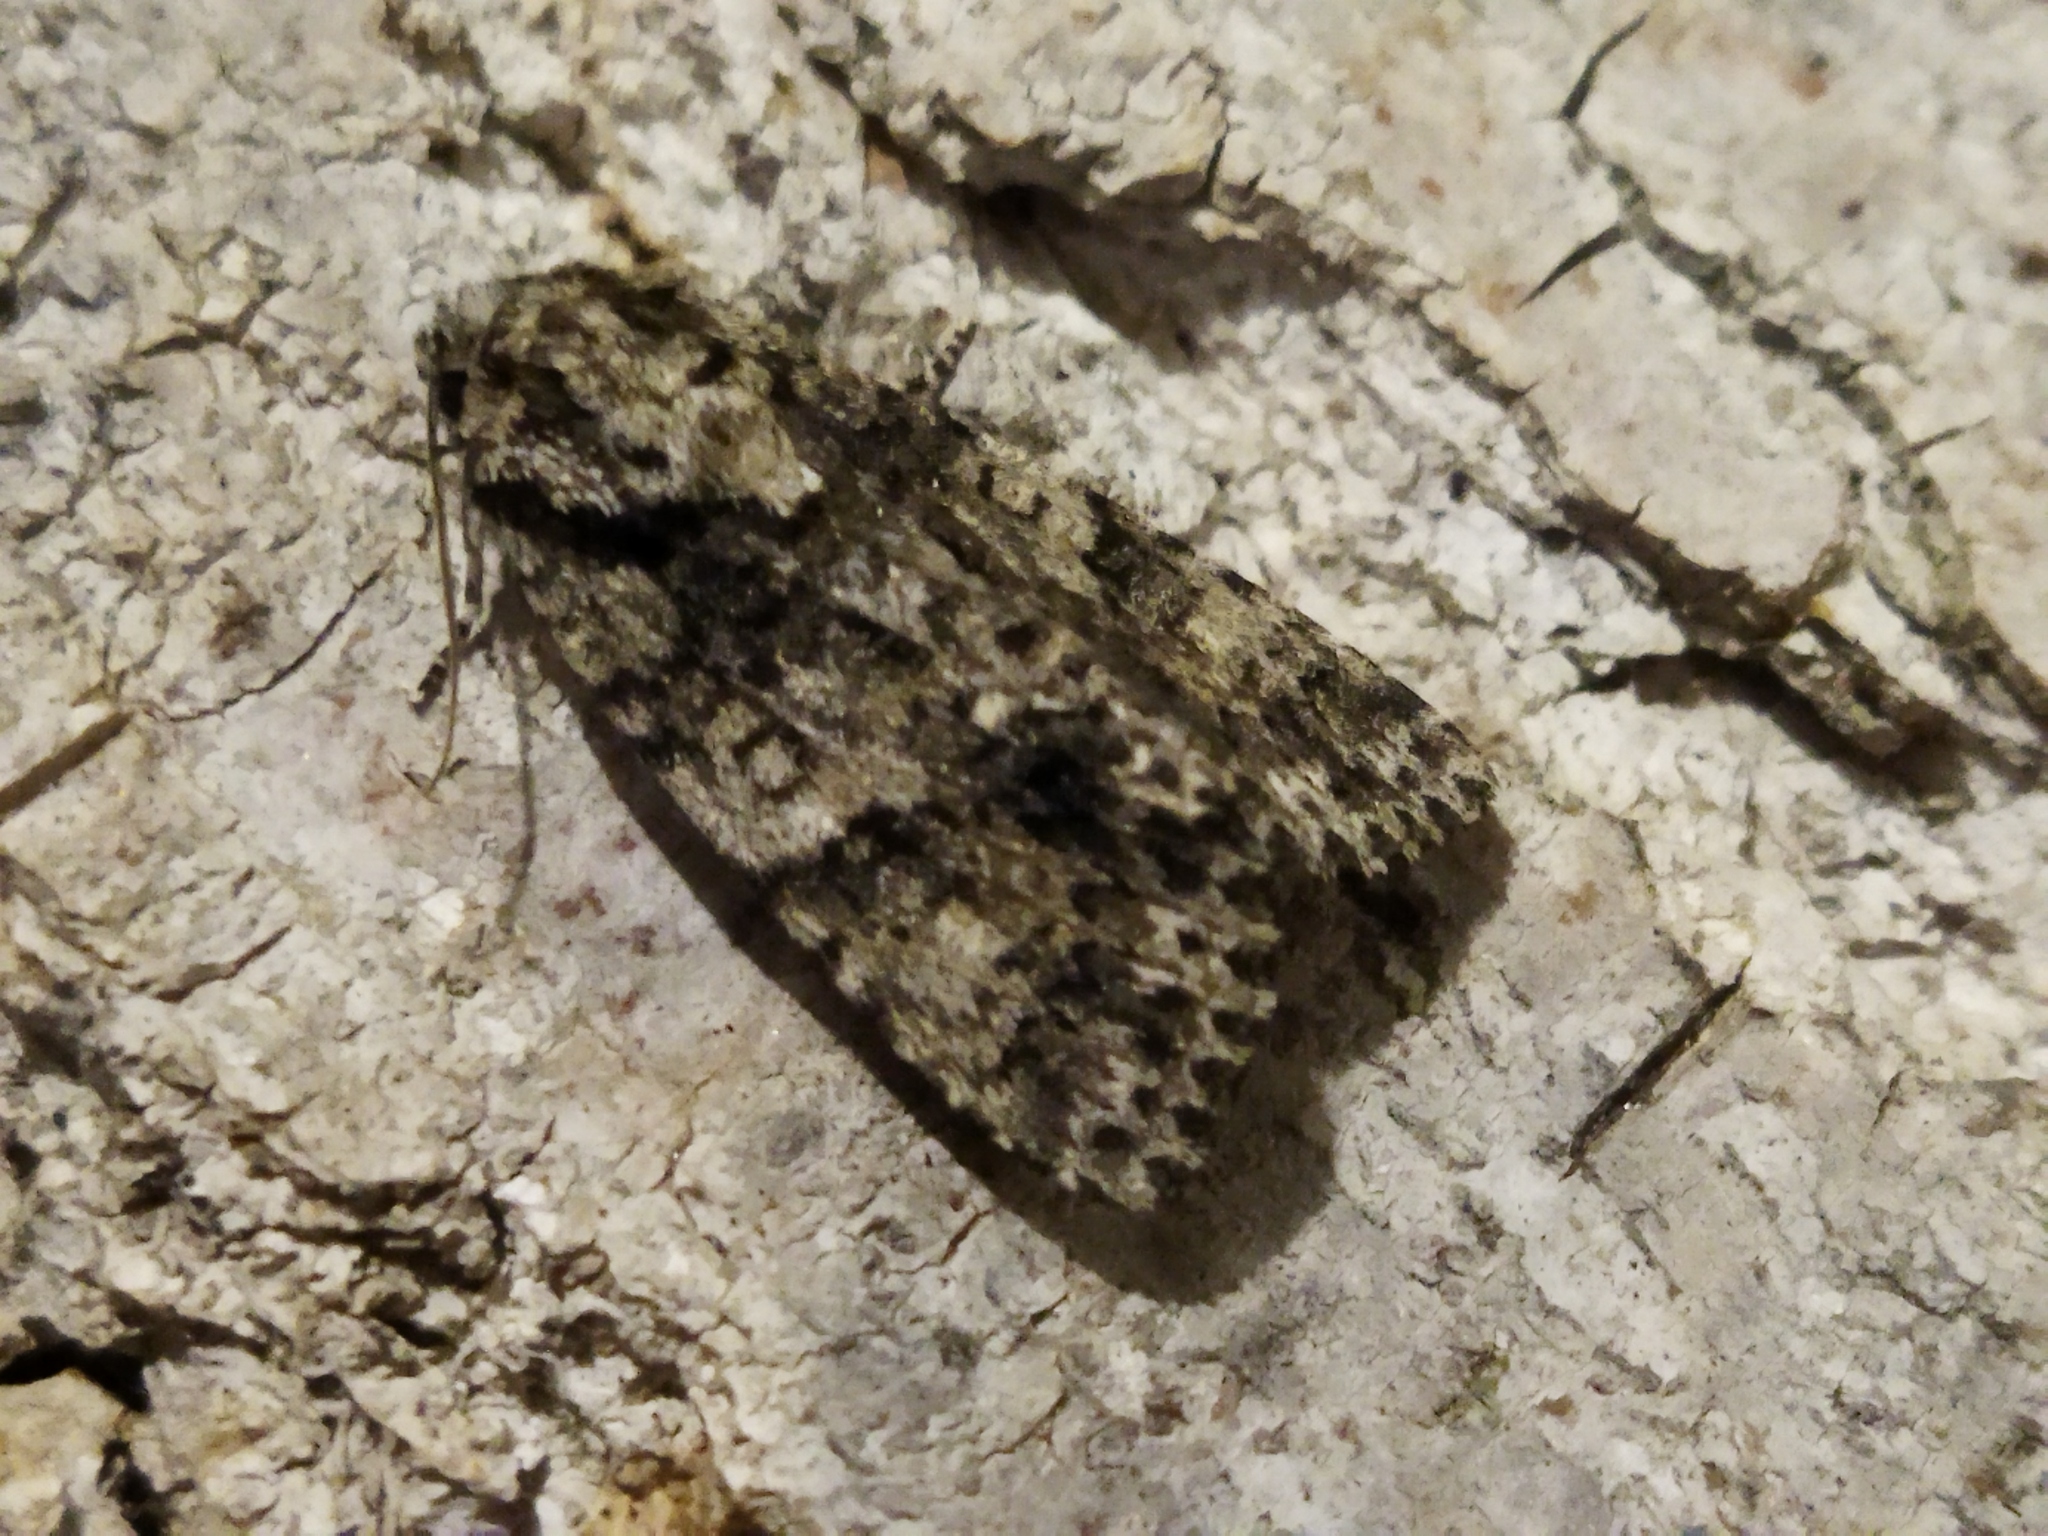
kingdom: Animalia
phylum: Arthropoda
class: Insecta
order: Lepidoptera
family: Noctuidae
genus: Acronicta
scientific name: Acronicta rumicis
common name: Knot grass
